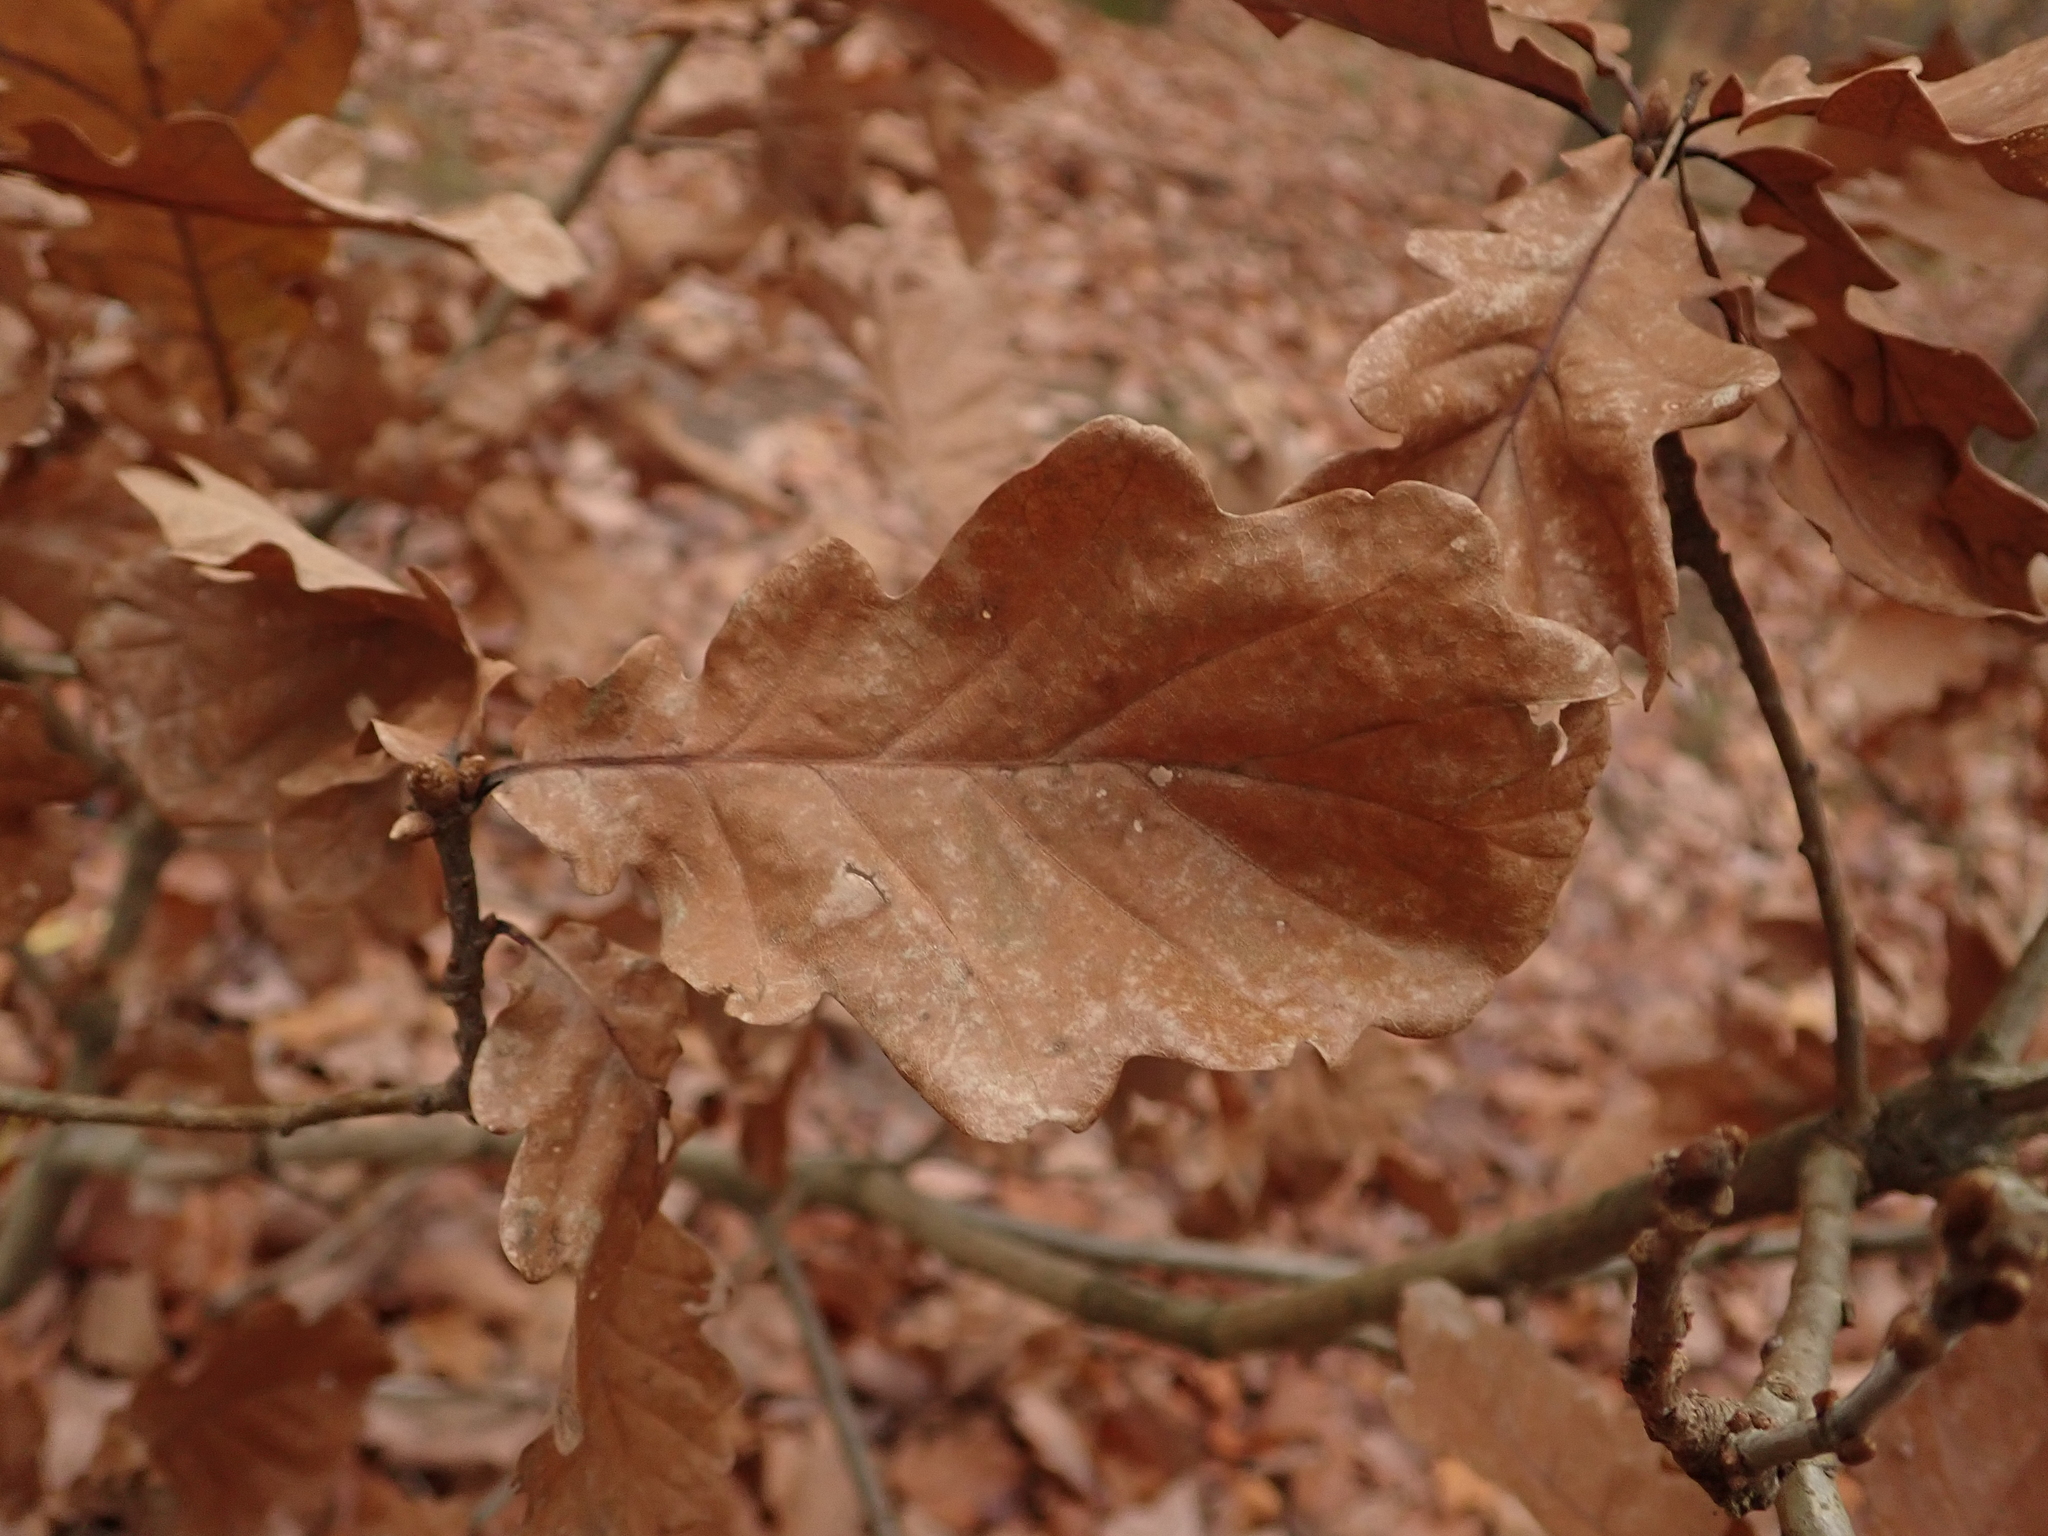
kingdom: Plantae
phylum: Tracheophyta
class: Magnoliopsida
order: Fagales
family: Fagaceae
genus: Quercus
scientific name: Quercus robur
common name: Pedunculate oak
